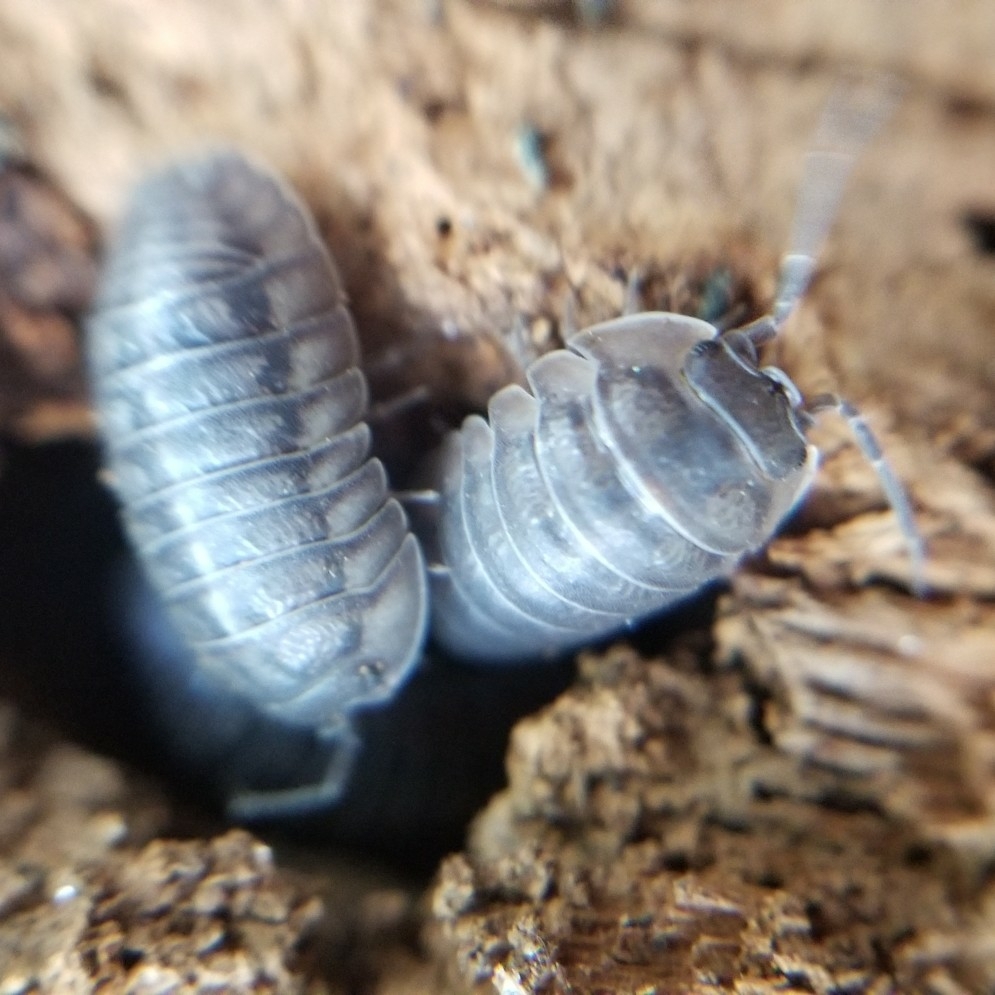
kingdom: Animalia
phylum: Arthropoda
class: Malacostraca
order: Isopoda
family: Armadillidiidae
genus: Armadillidium
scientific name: Armadillidium nasatum
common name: Isopod
